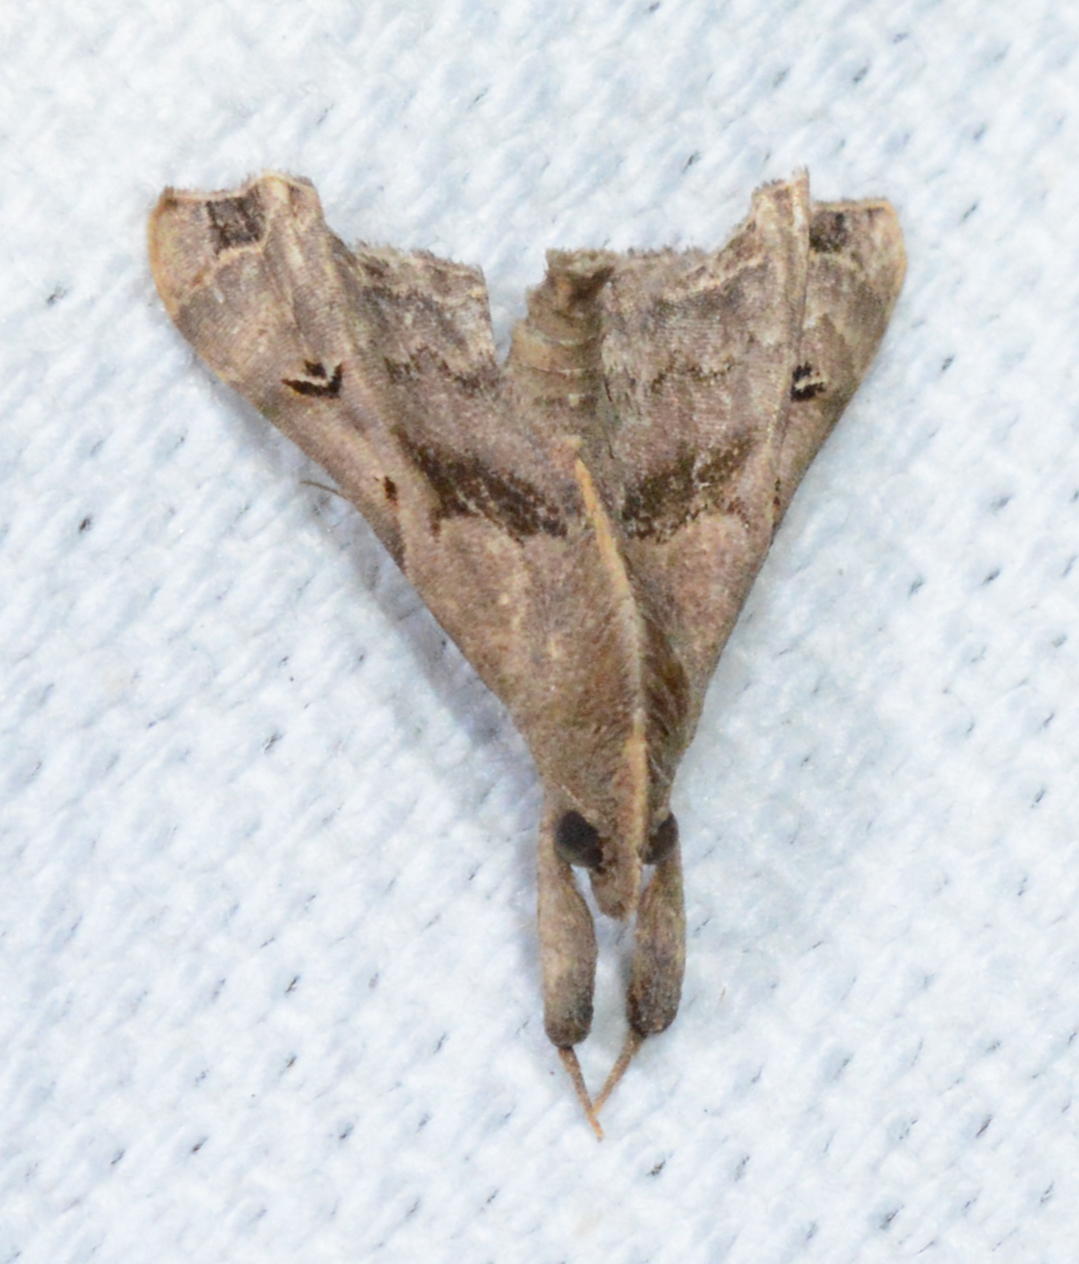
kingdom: Animalia
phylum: Arthropoda
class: Insecta
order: Lepidoptera
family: Erebidae
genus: Palthis
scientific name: Palthis asopialis
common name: Faint-spotted palthis moth
